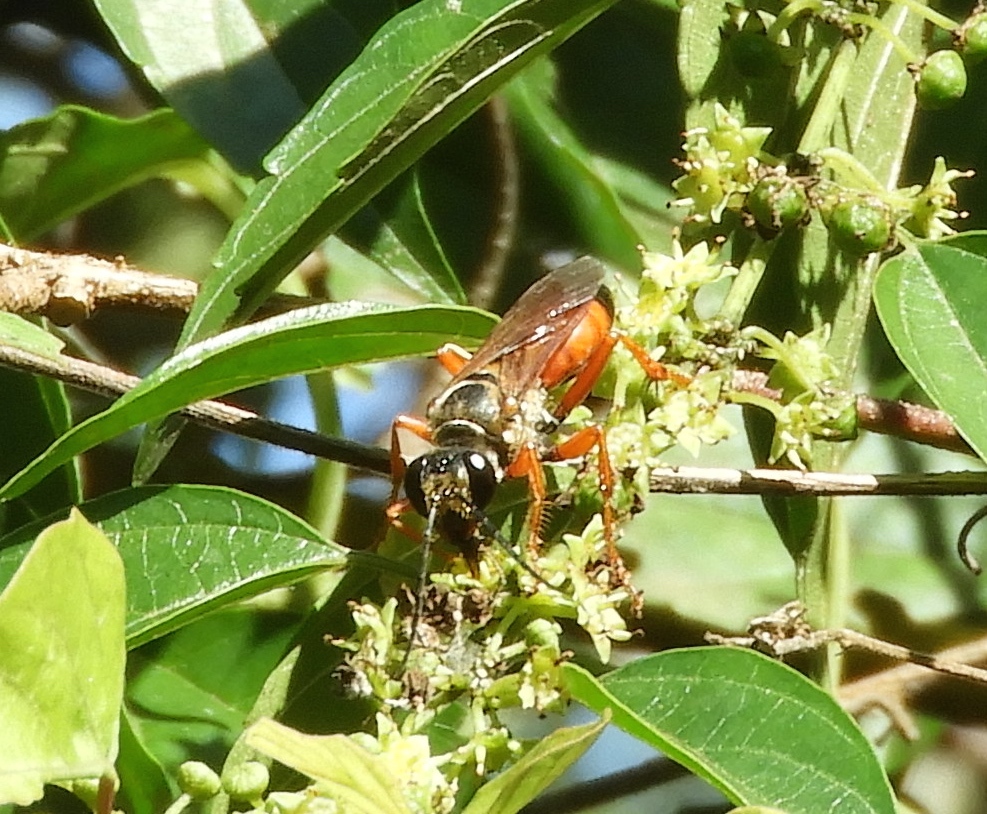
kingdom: Animalia
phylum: Arthropoda
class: Insecta
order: Hymenoptera
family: Sphecidae
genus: Sphex
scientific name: Sphex
